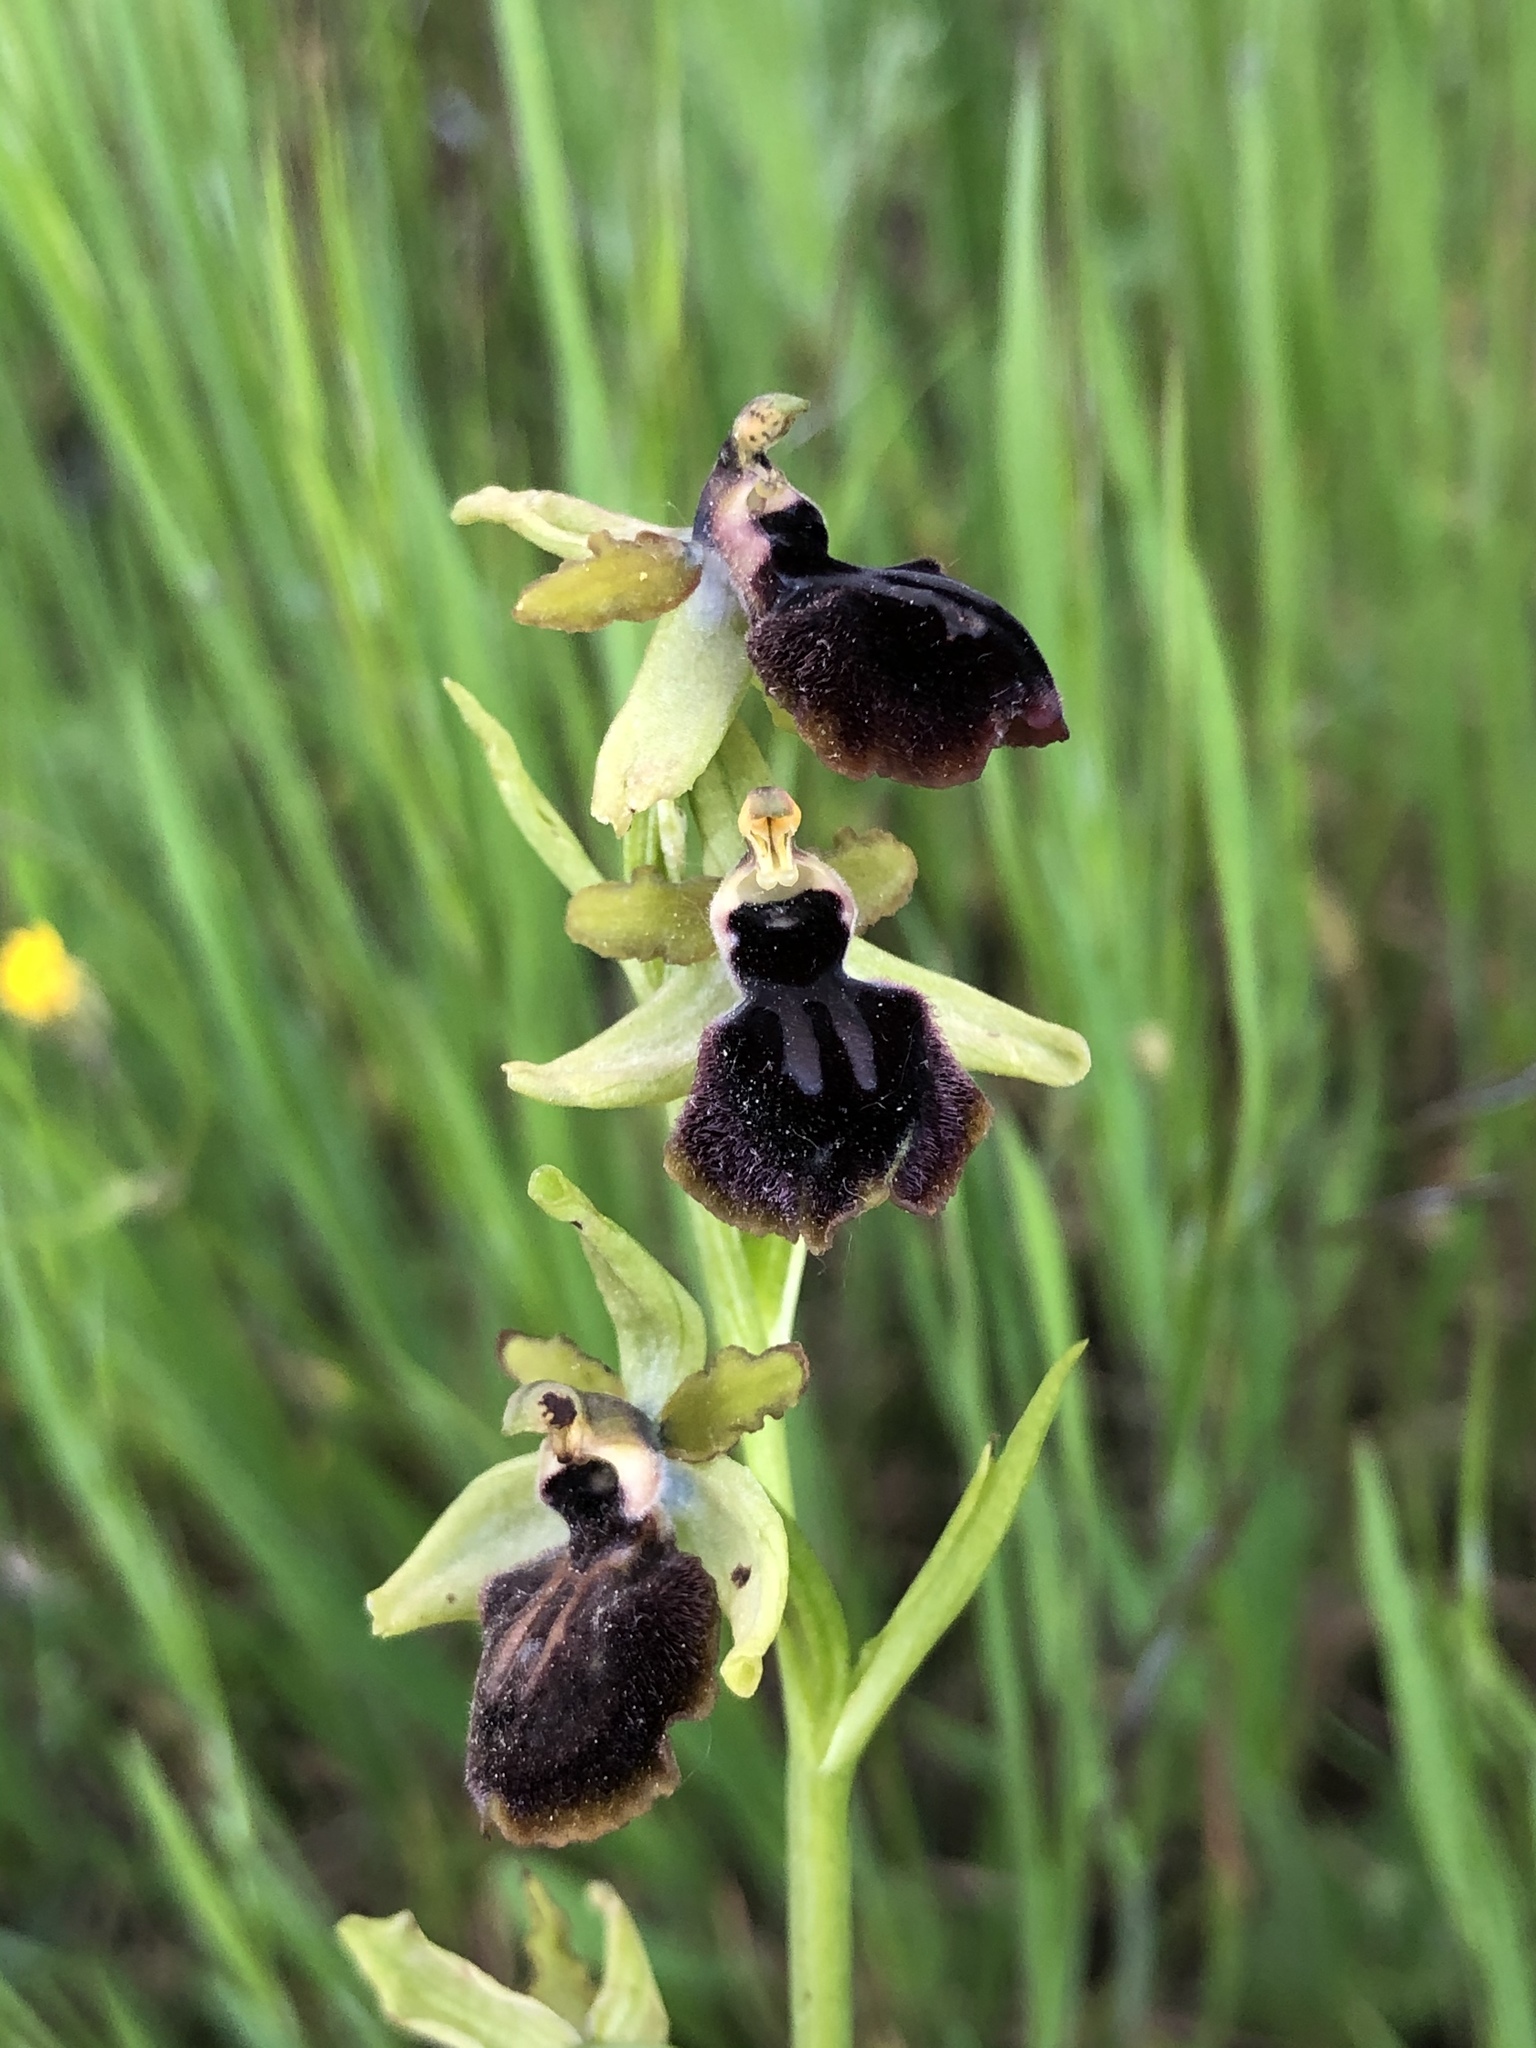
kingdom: Plantae
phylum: Tracheophyta
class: Liliopsida
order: Asparagales
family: Orchidaceae
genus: Ophrys
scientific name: Ophrys sphegodes
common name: Early spider-orchid
